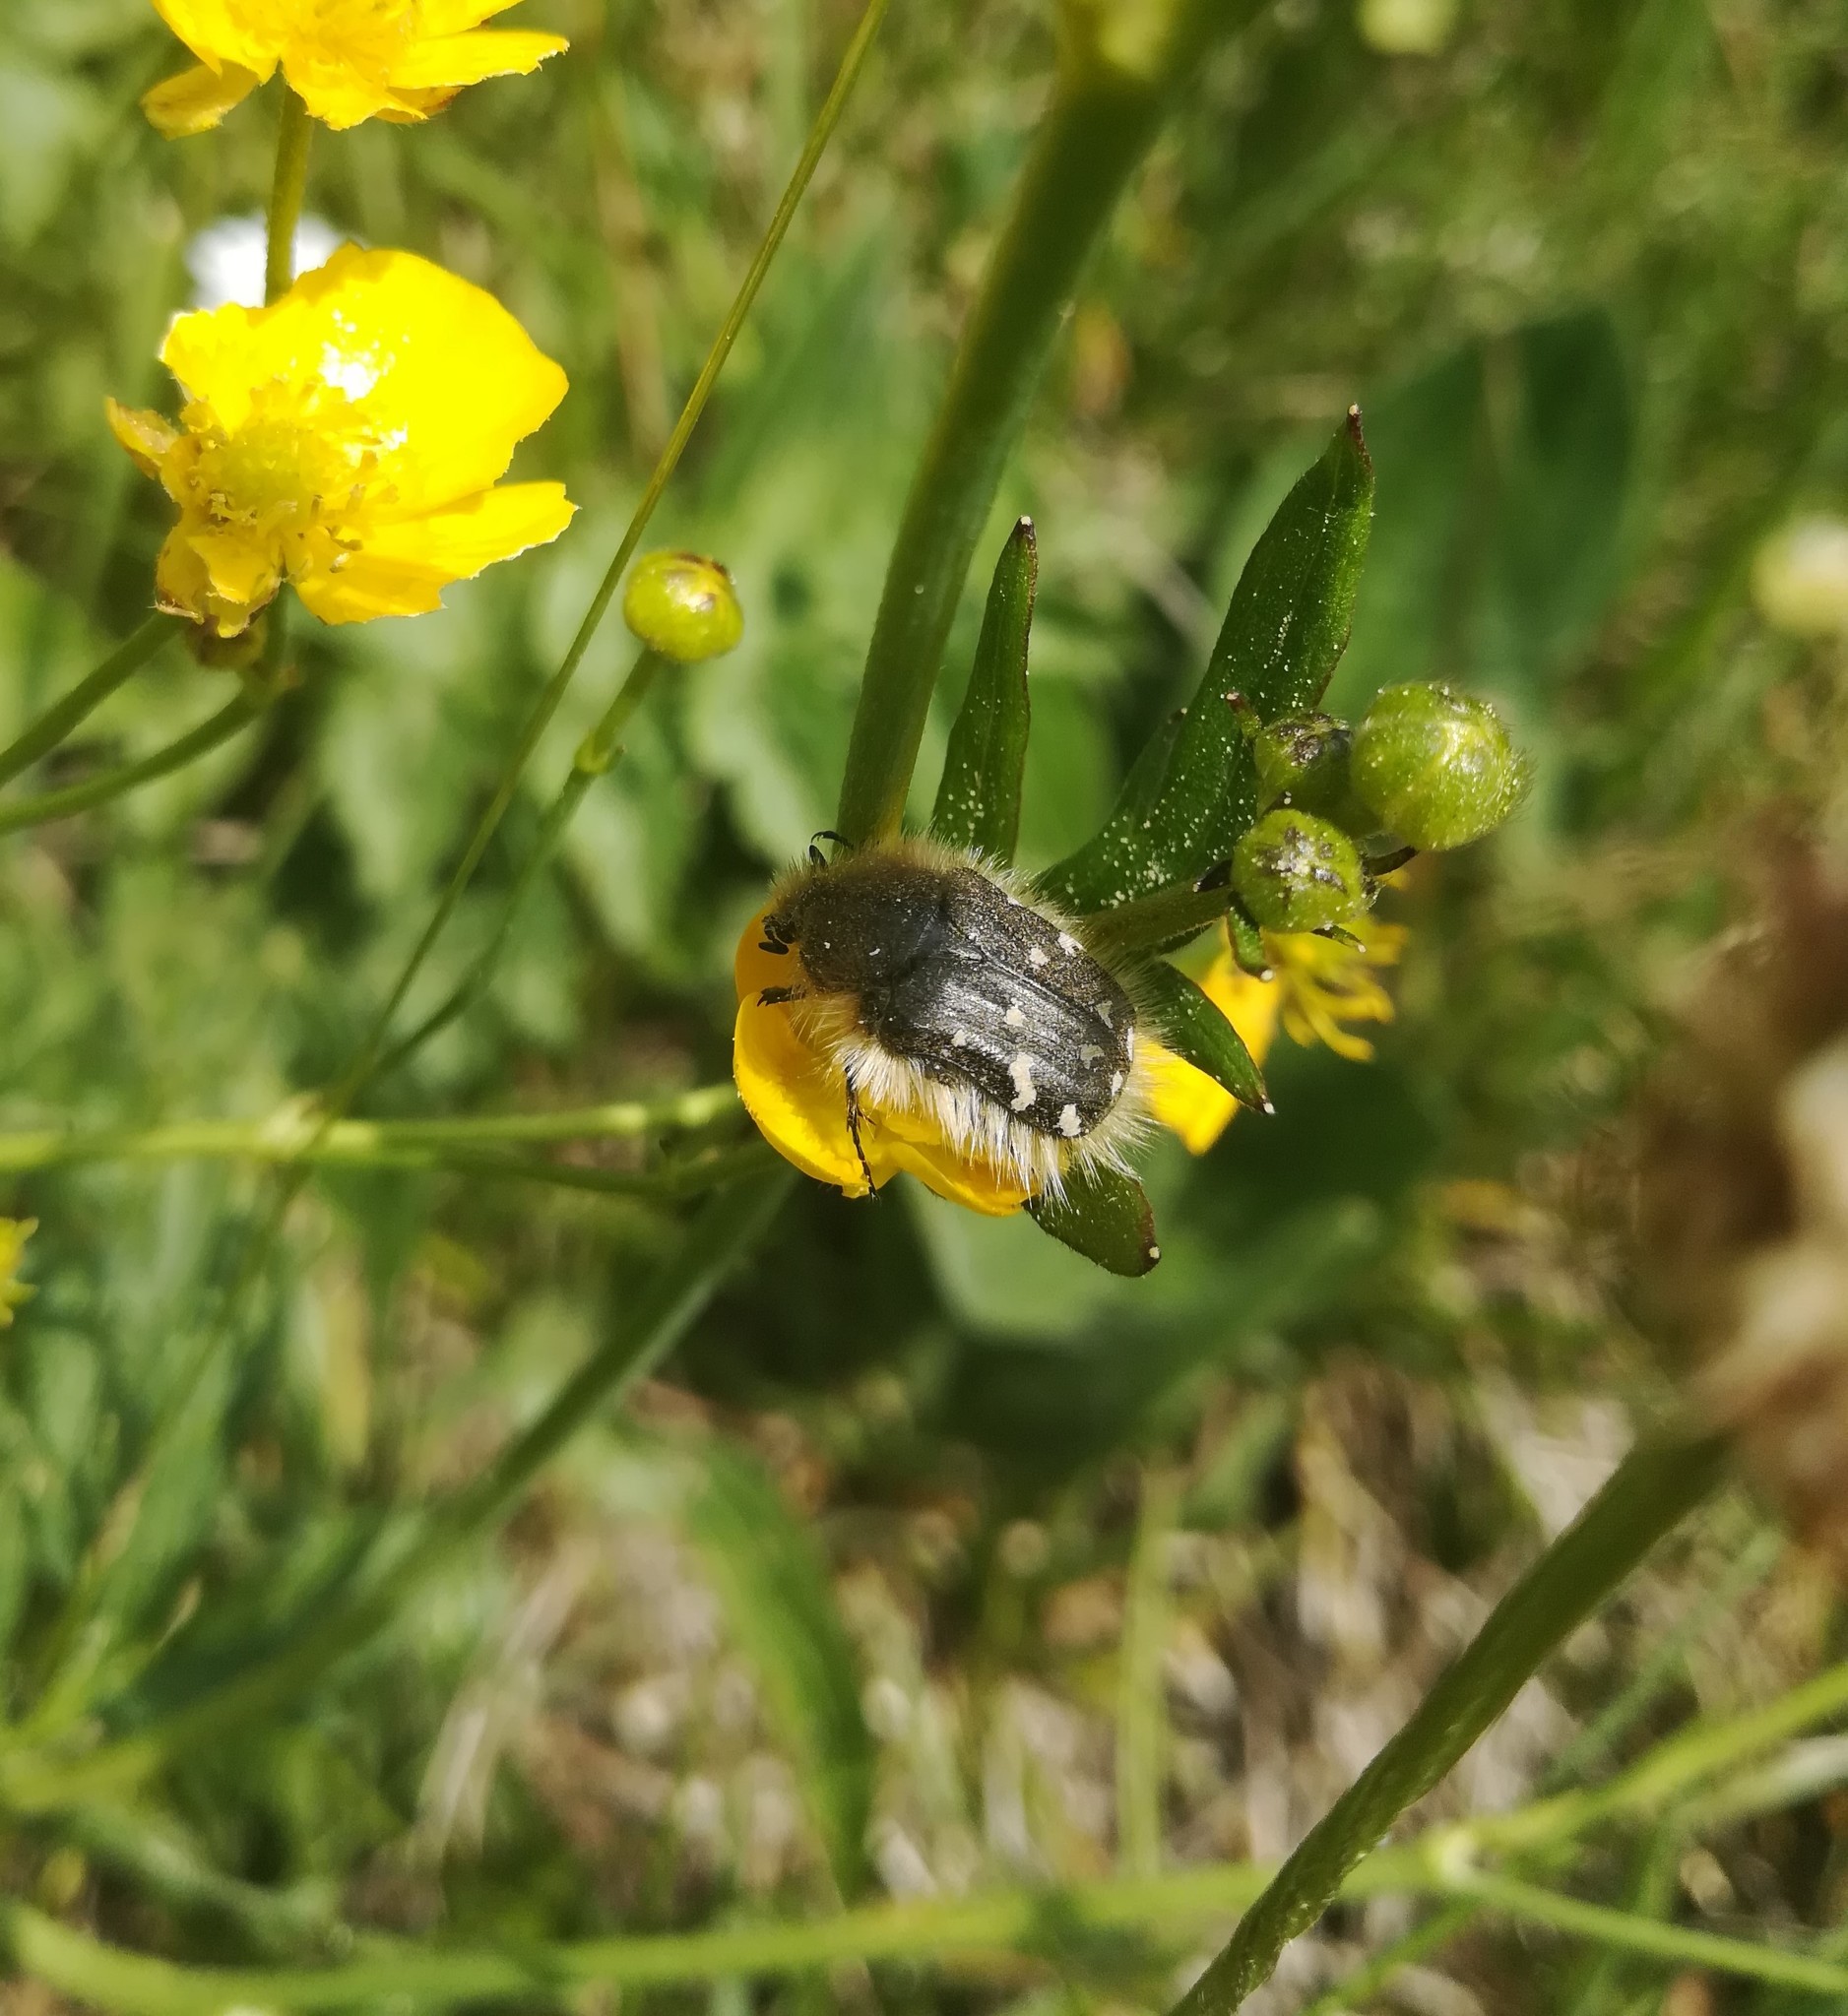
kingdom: Animalia
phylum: Arthropoda
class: Insecta
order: Coleoptera
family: Scarabaeidae
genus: Tropinota
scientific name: Tropinota hirta
